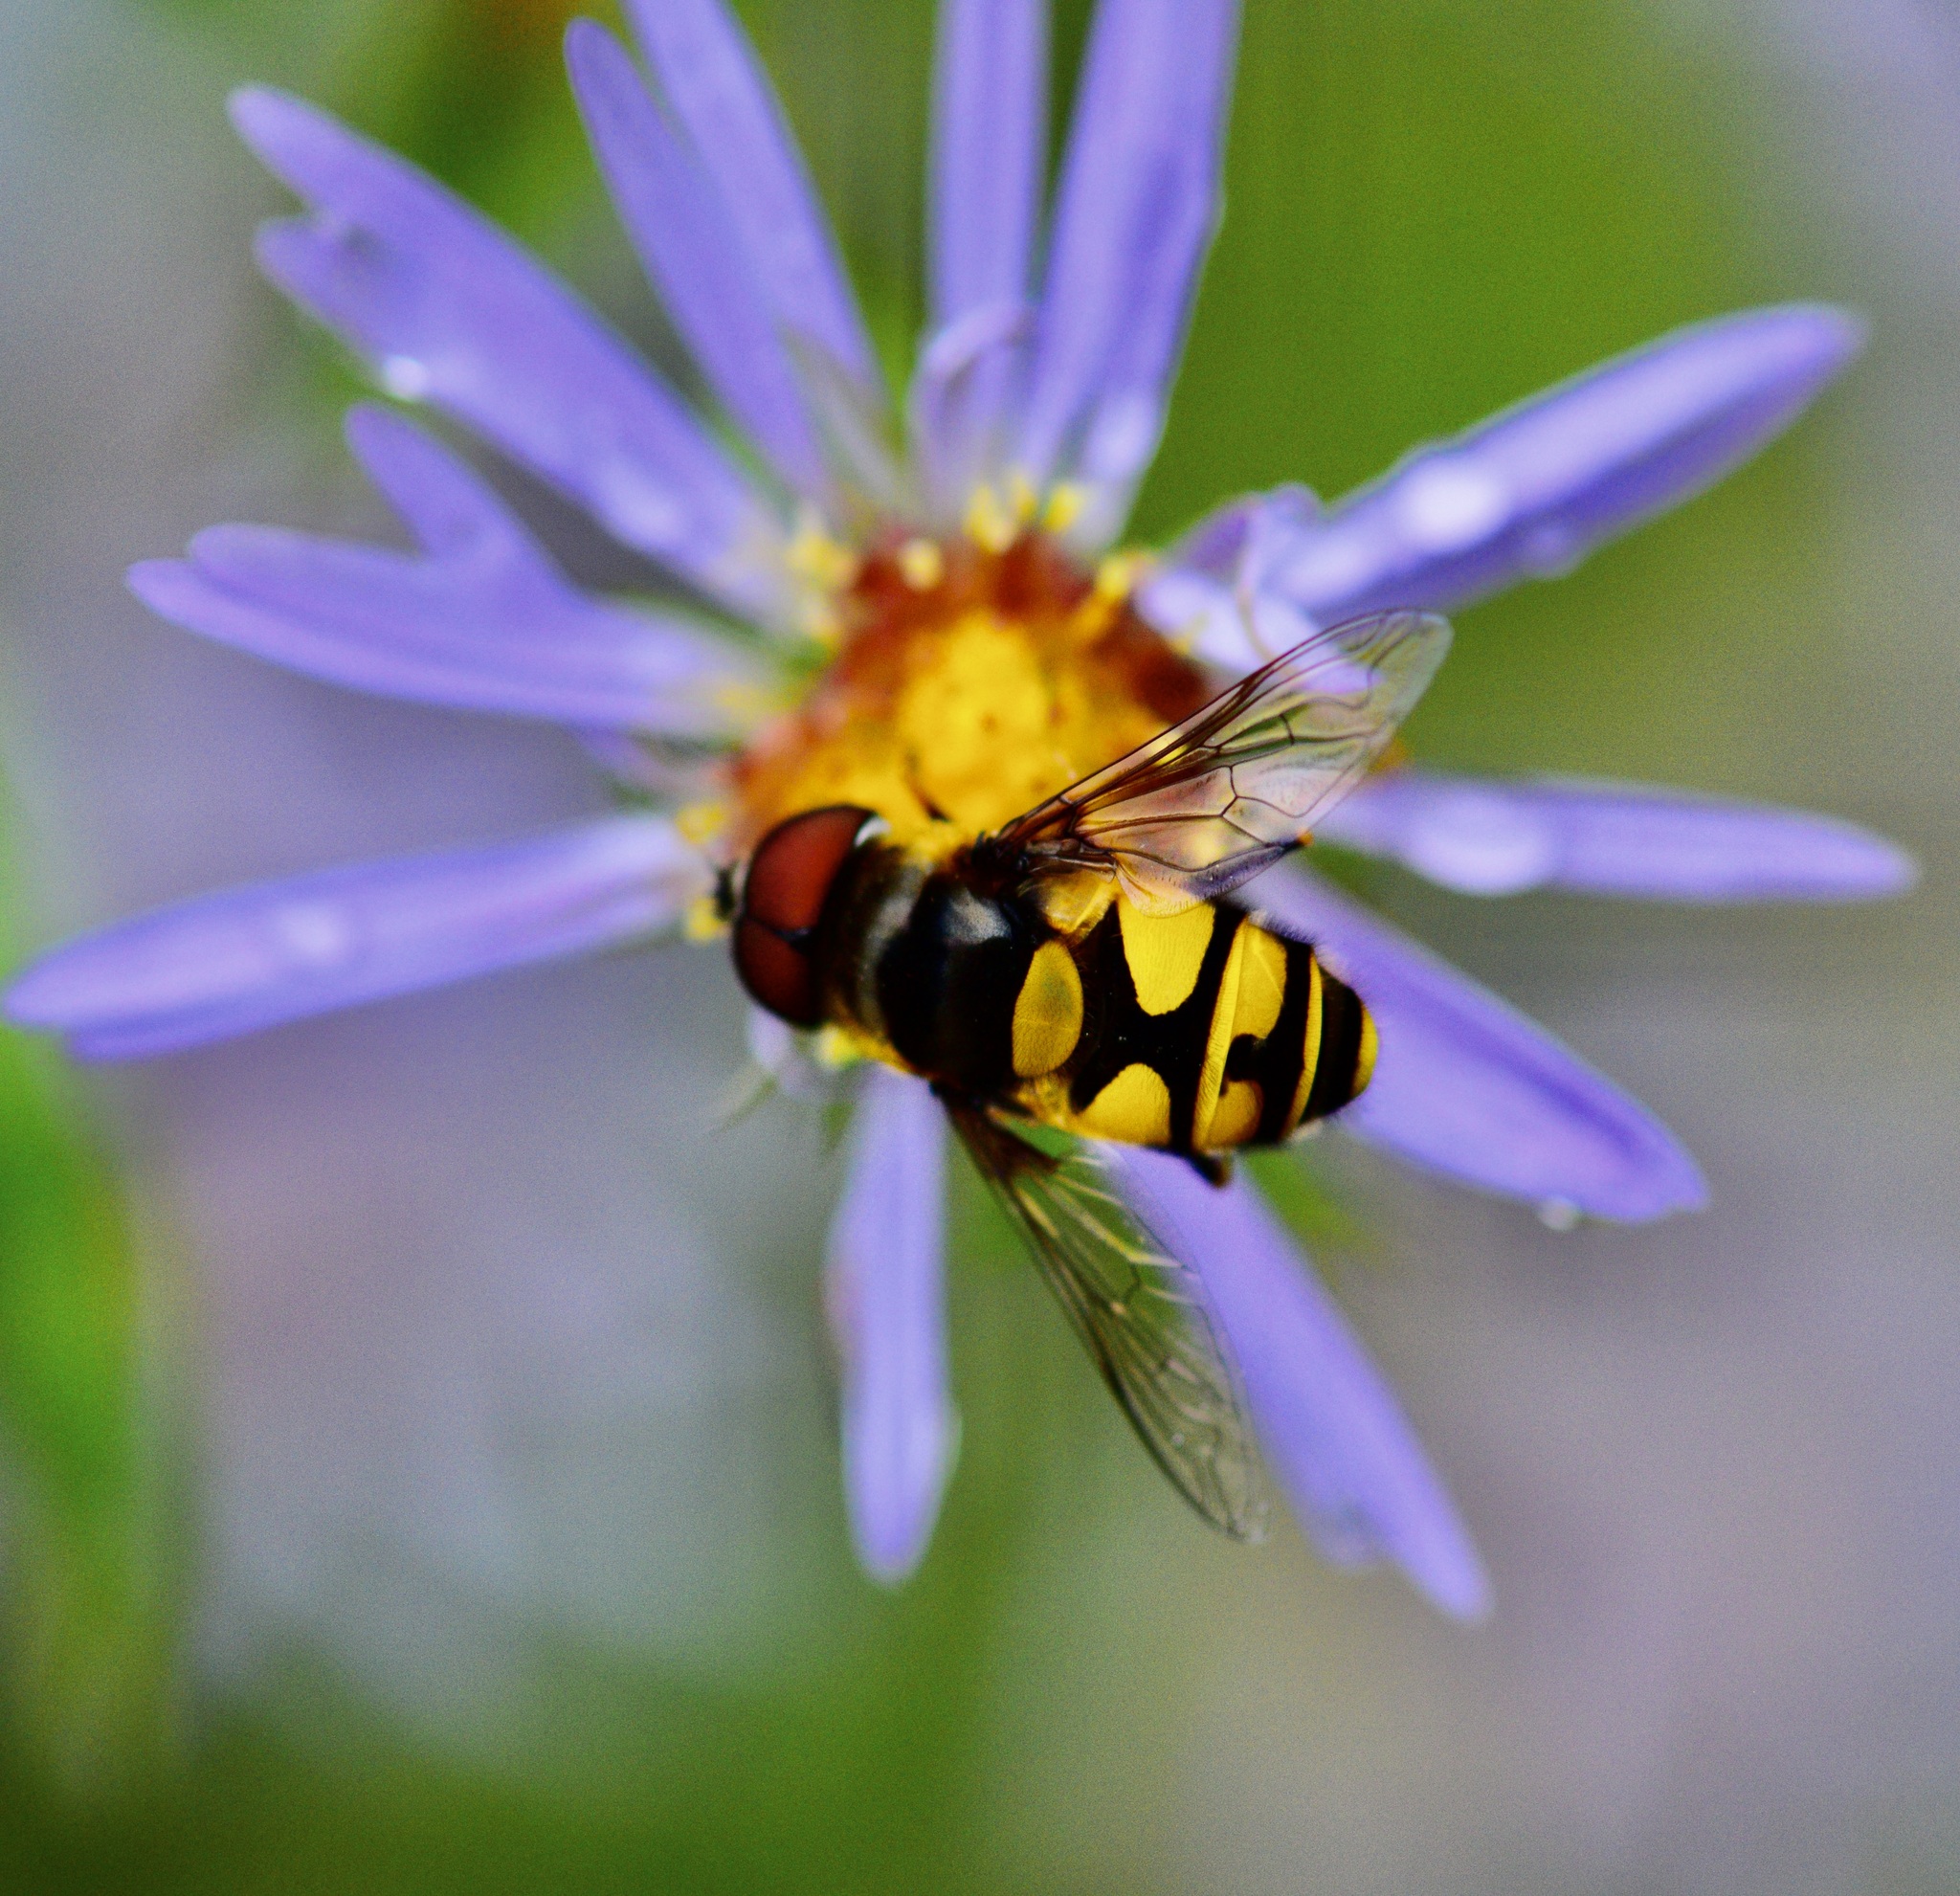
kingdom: Animalia
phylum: Arthropoda
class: Insecta
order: Diptera
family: Syrphidae
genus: Eristalis
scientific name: Eristalis transversa
